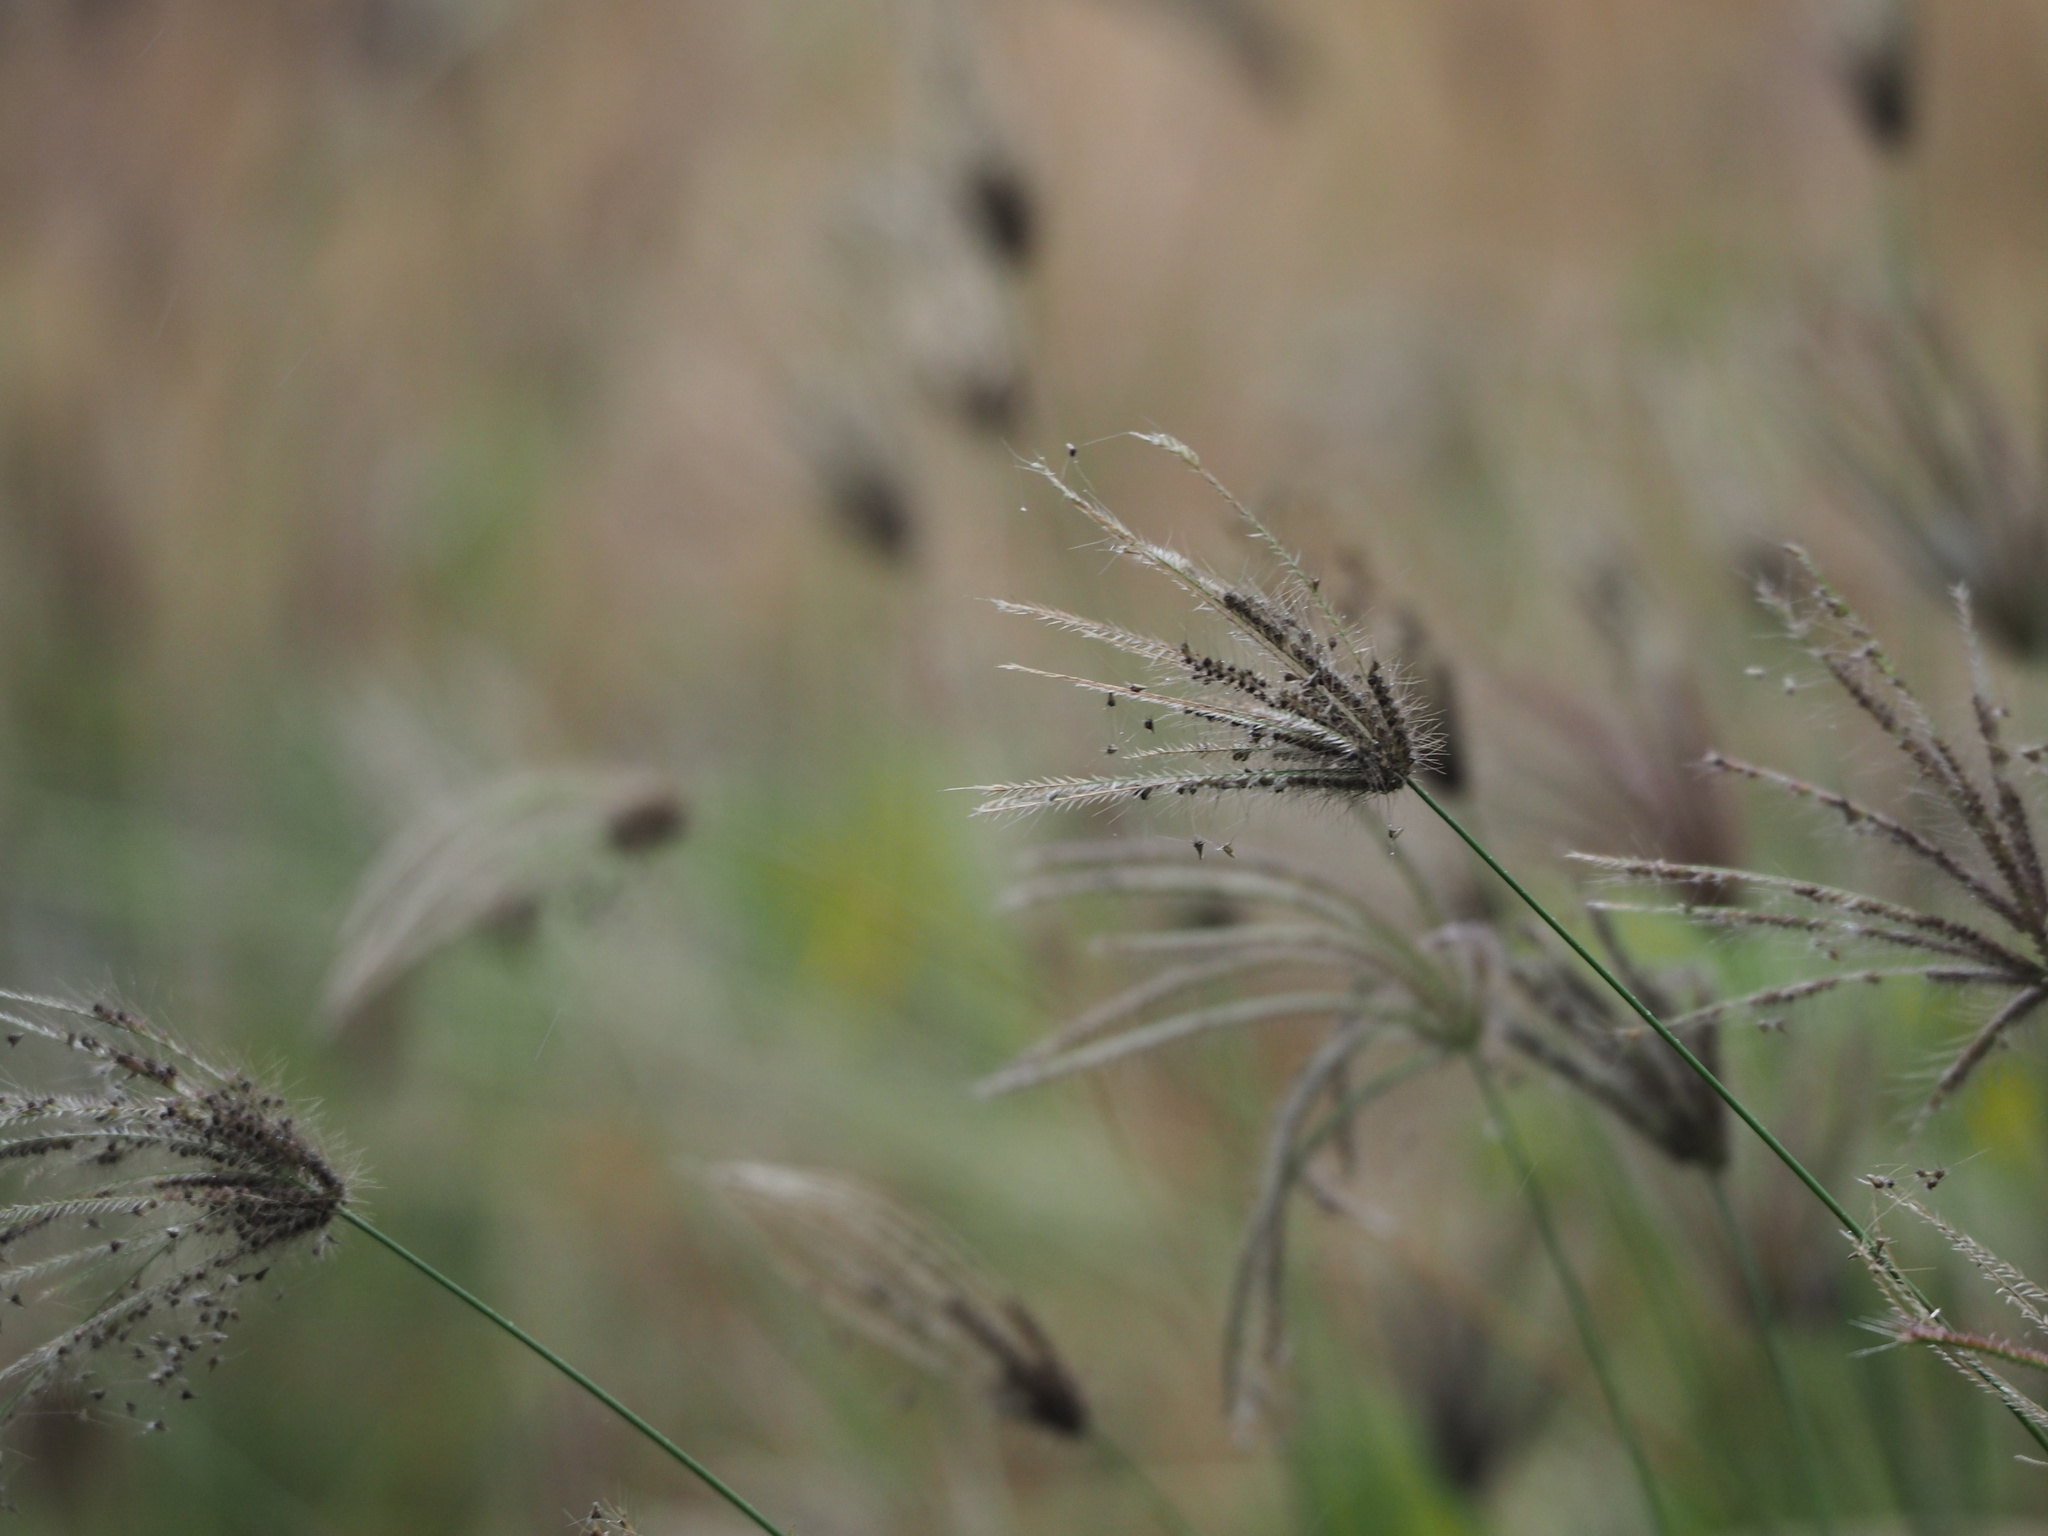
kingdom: Plantae
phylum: Tracheophyta
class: Liliopsida
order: Poales
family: Poaceae
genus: Chloris
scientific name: Chloris barbata
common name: Swollen fingergrass
